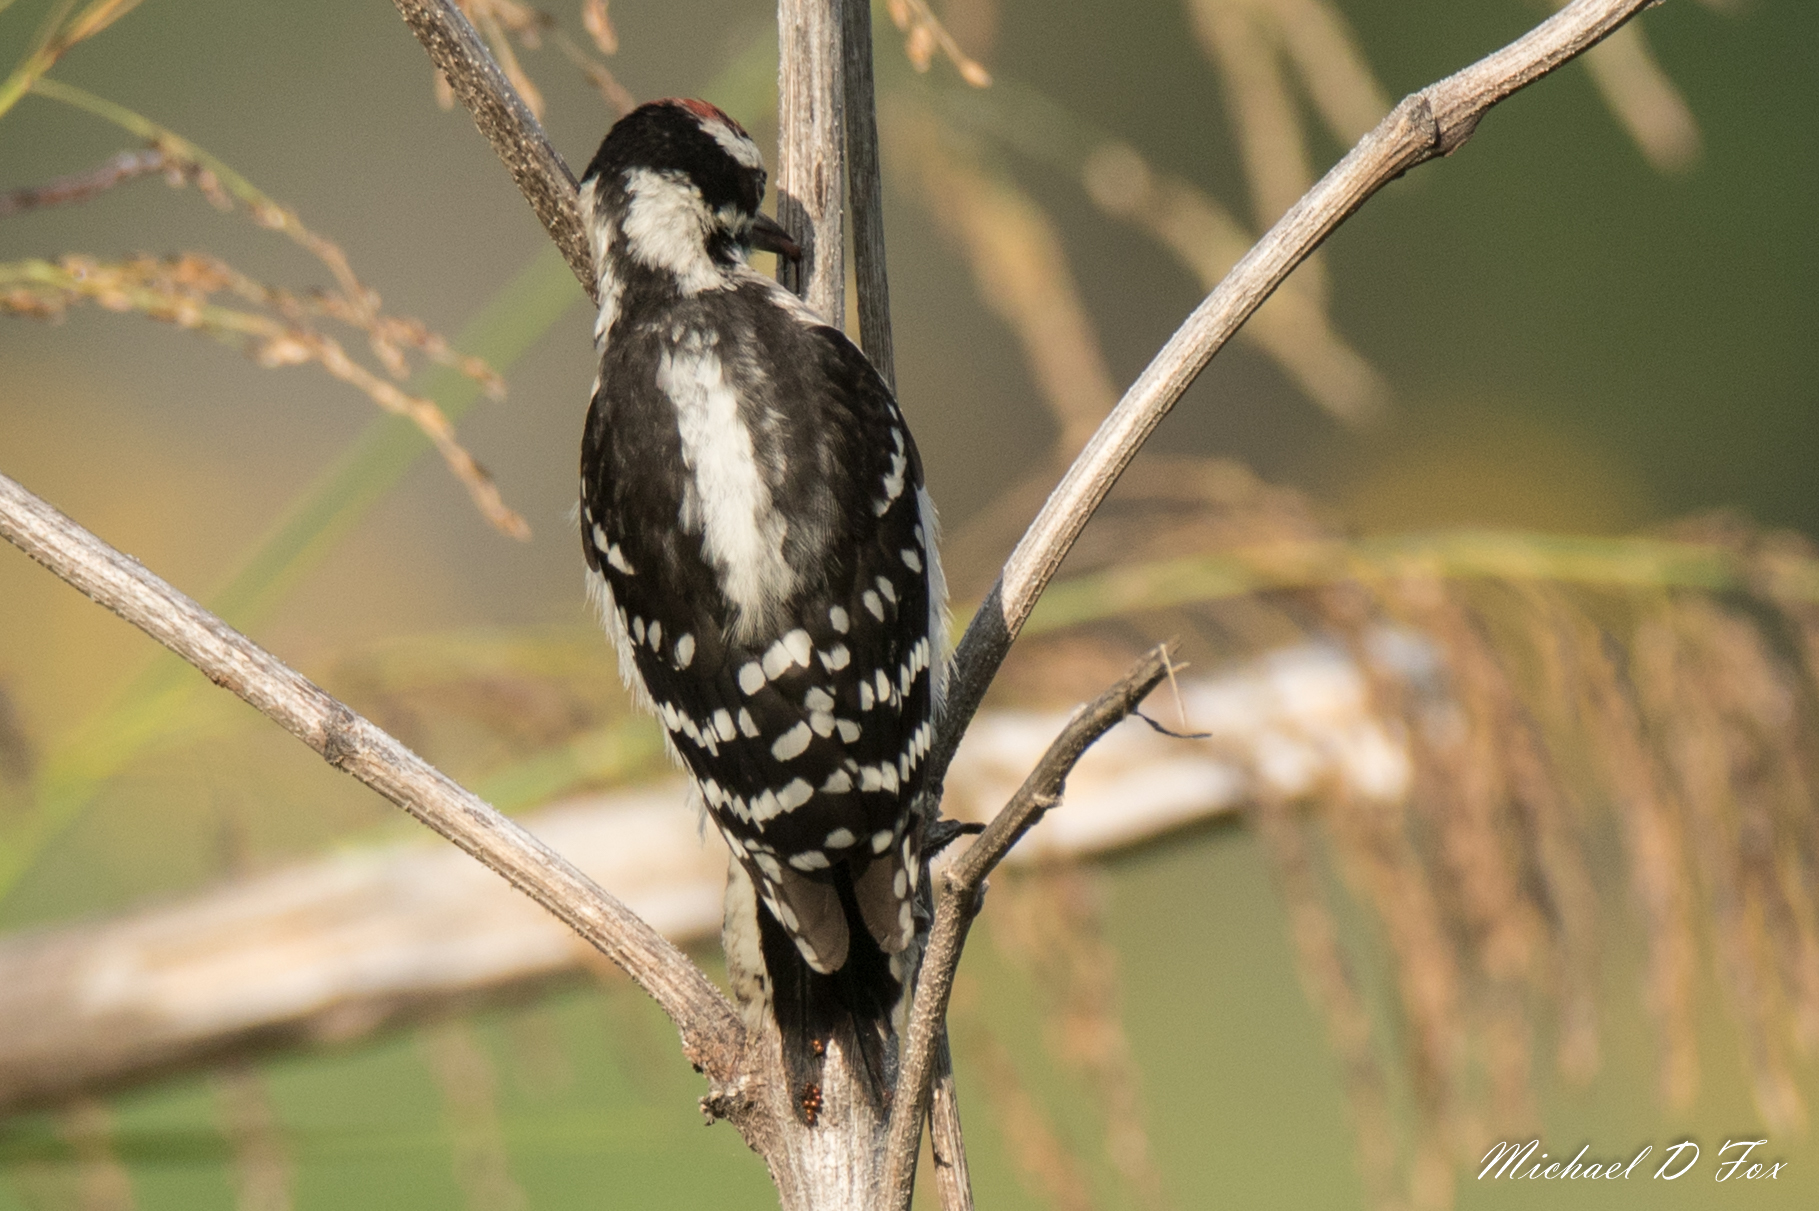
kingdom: Animalia
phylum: Chordata
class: Aves
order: Piciformes
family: Picidae
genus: Dryobates
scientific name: Dryobates pubescens
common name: Downy woodpecker
